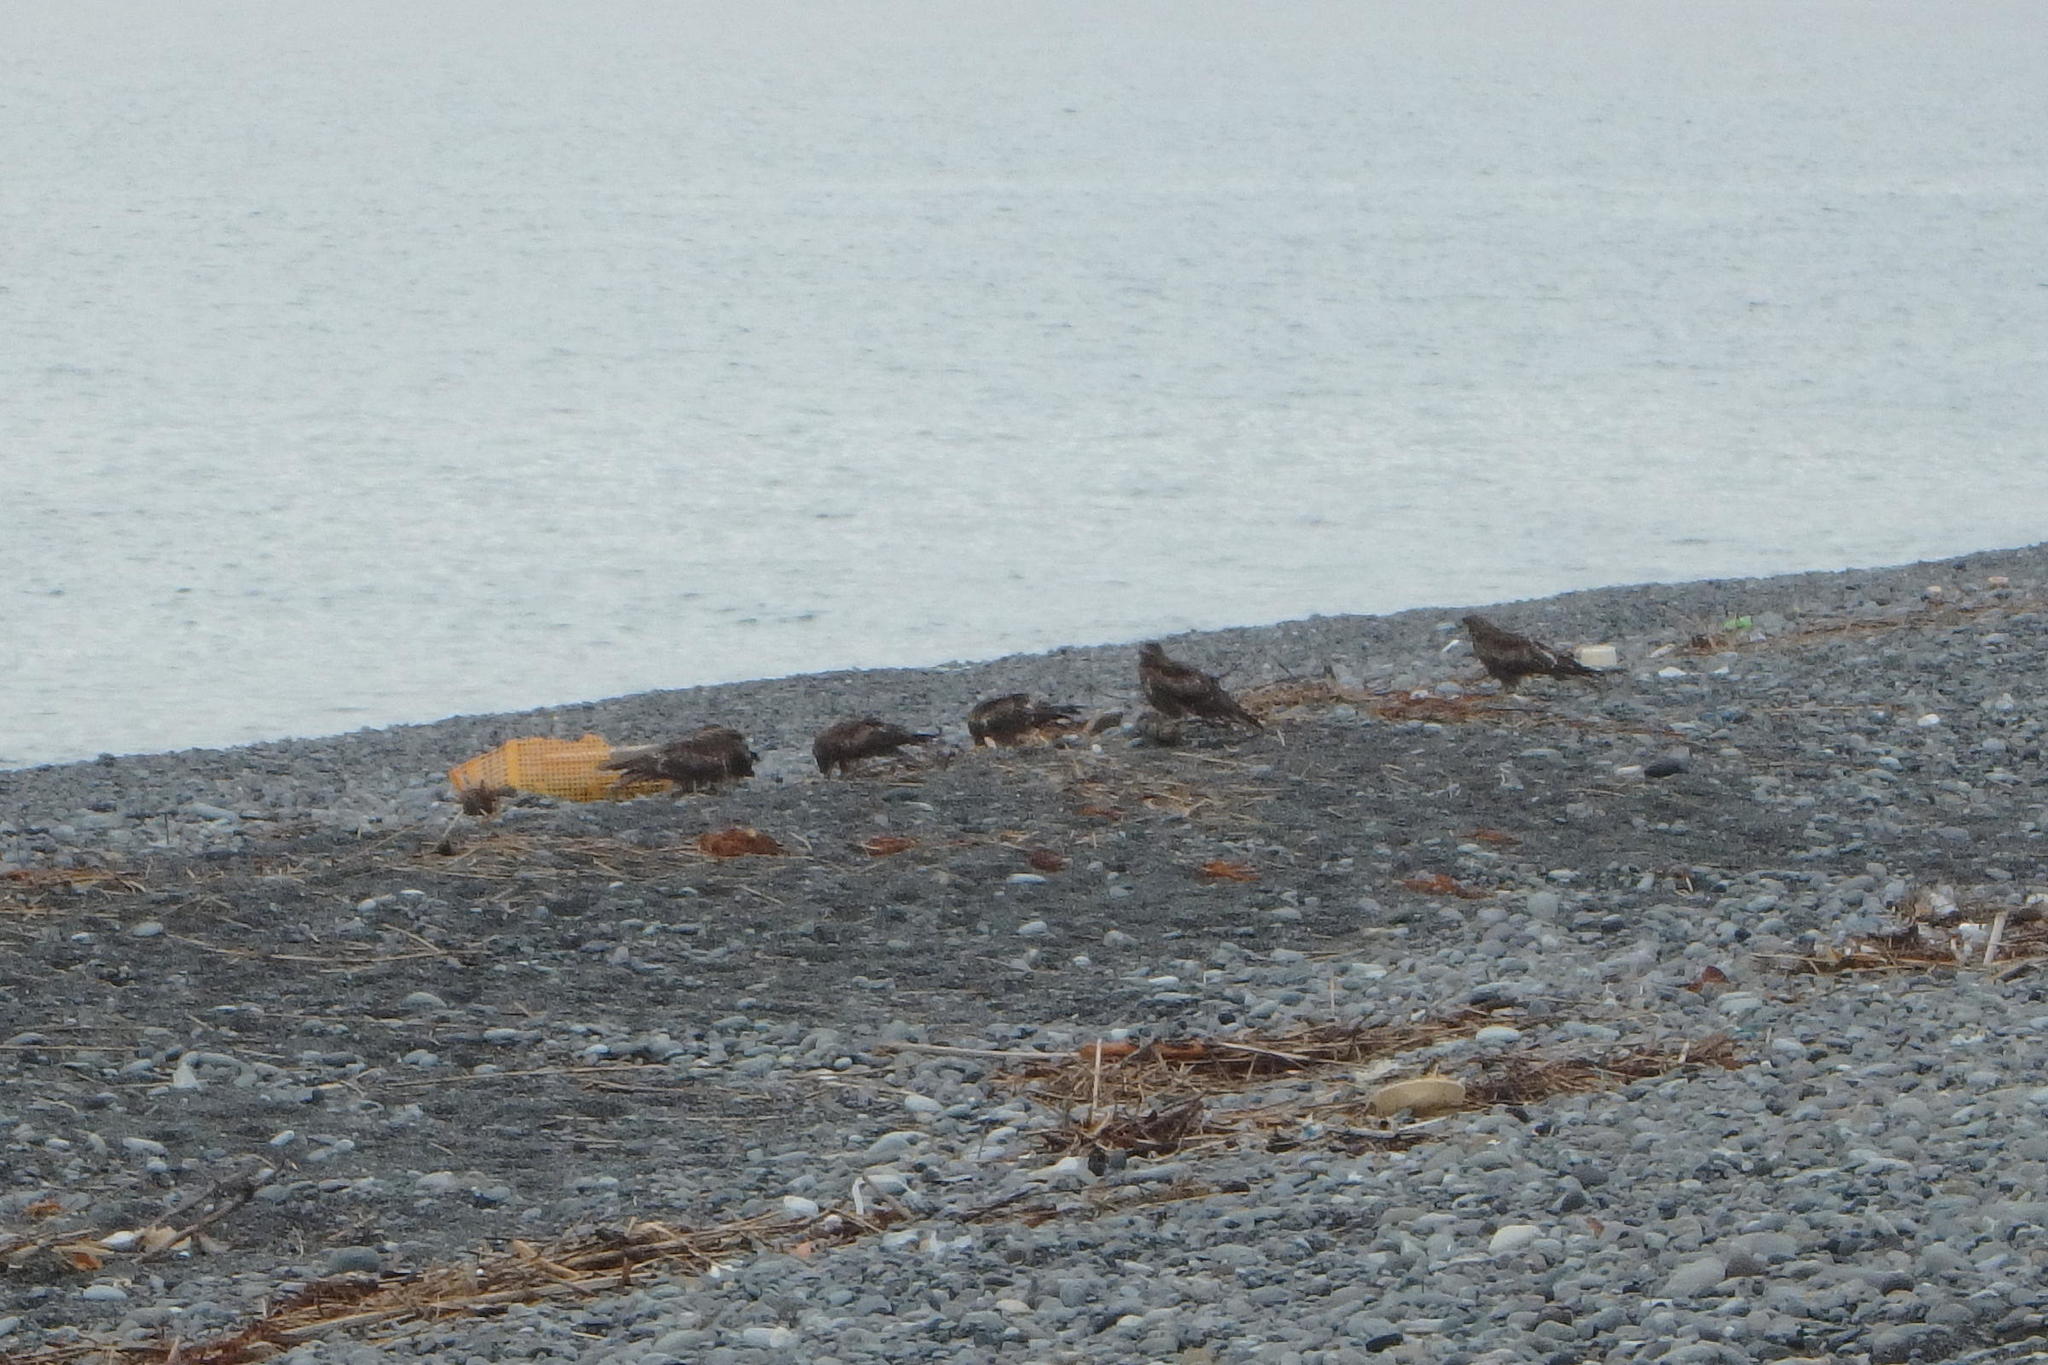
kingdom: Animalia
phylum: Chordata
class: Aves
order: Accipitriformes
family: Accipitridae
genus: Milvus
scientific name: Milvus migrans
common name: Black kite
